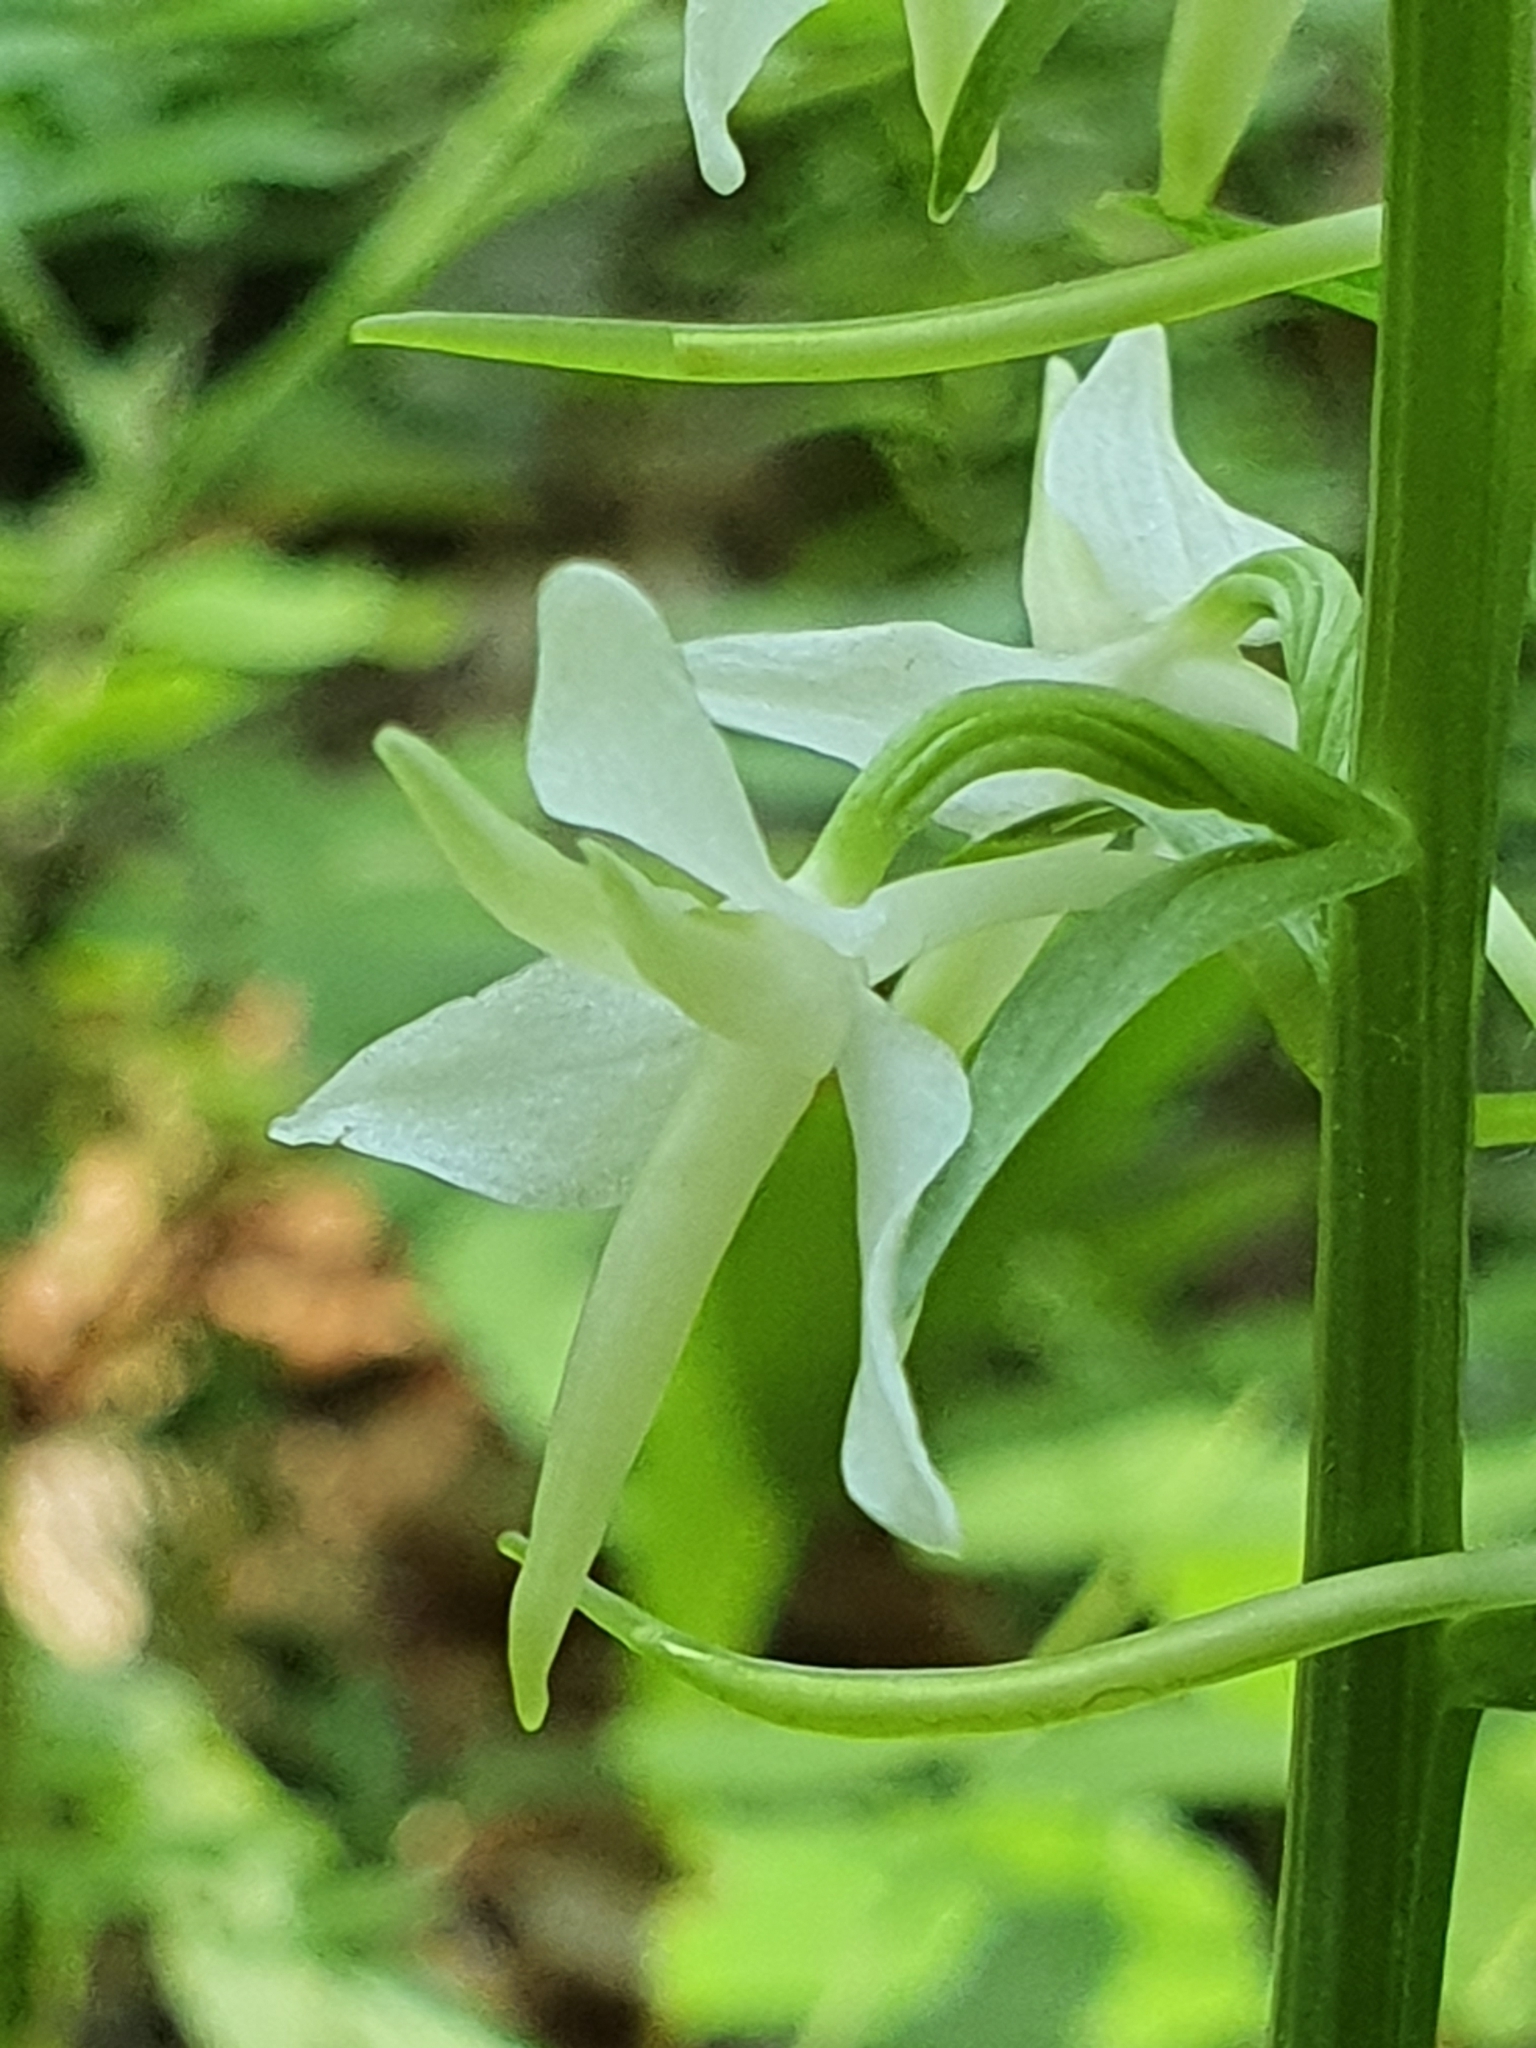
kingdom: Plantae
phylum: Tracheophyta
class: Liliopsida
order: Asparagales
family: Orchidaceae
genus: Platanthera
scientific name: Platanthera bifolia
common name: Lesser butterfly-orchid
